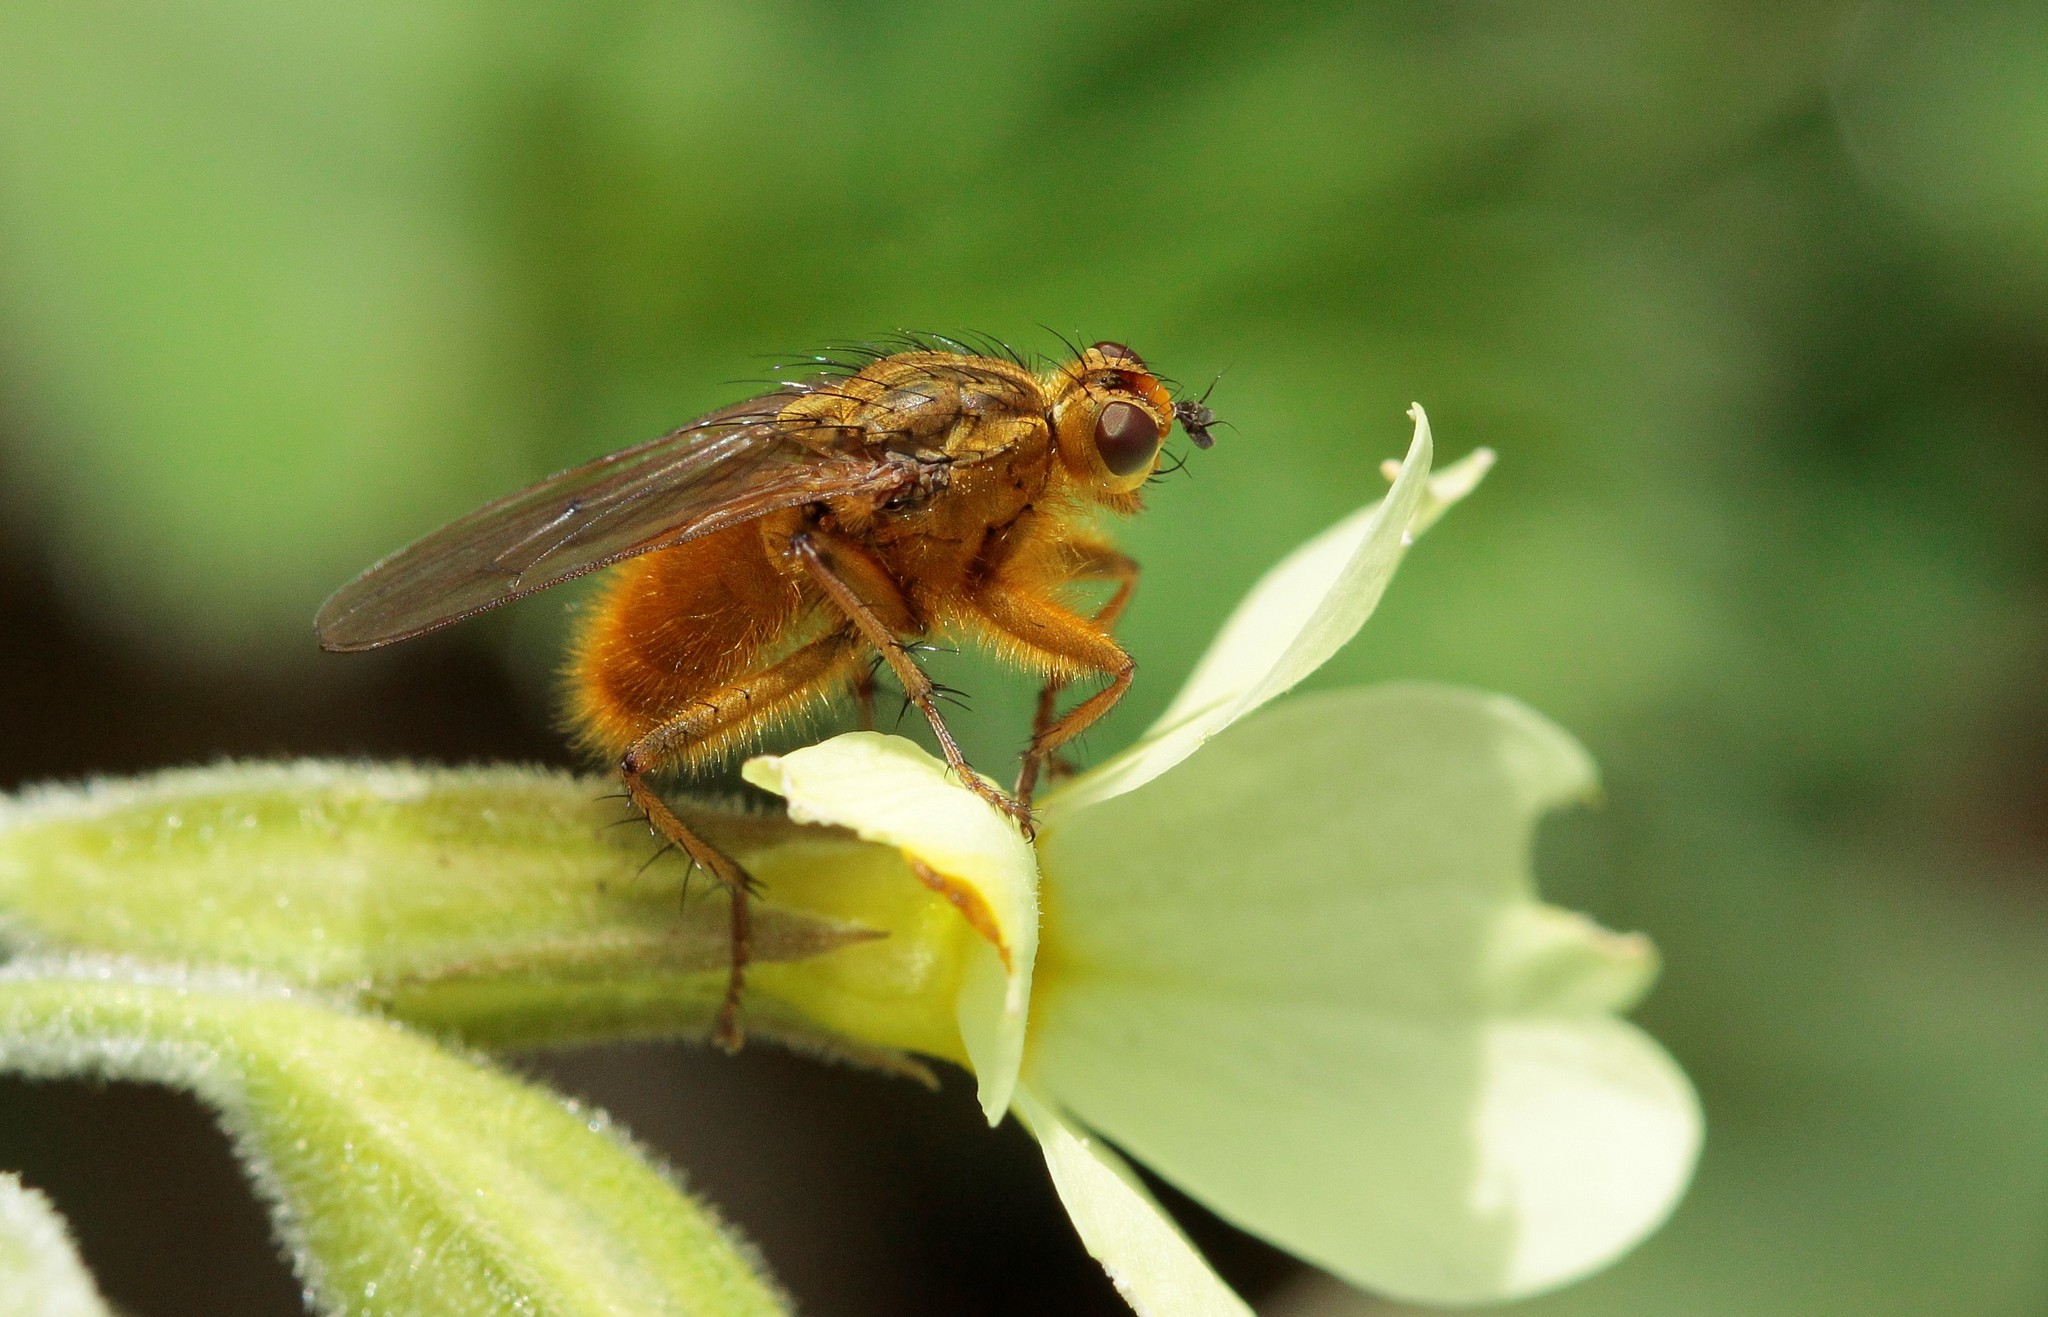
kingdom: Animalia
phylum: Arthropoda
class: Insecta
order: Diptera
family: Scathophagidae
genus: Scathophaga
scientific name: Scathophaga stercoraria
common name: Yellow dung fly
